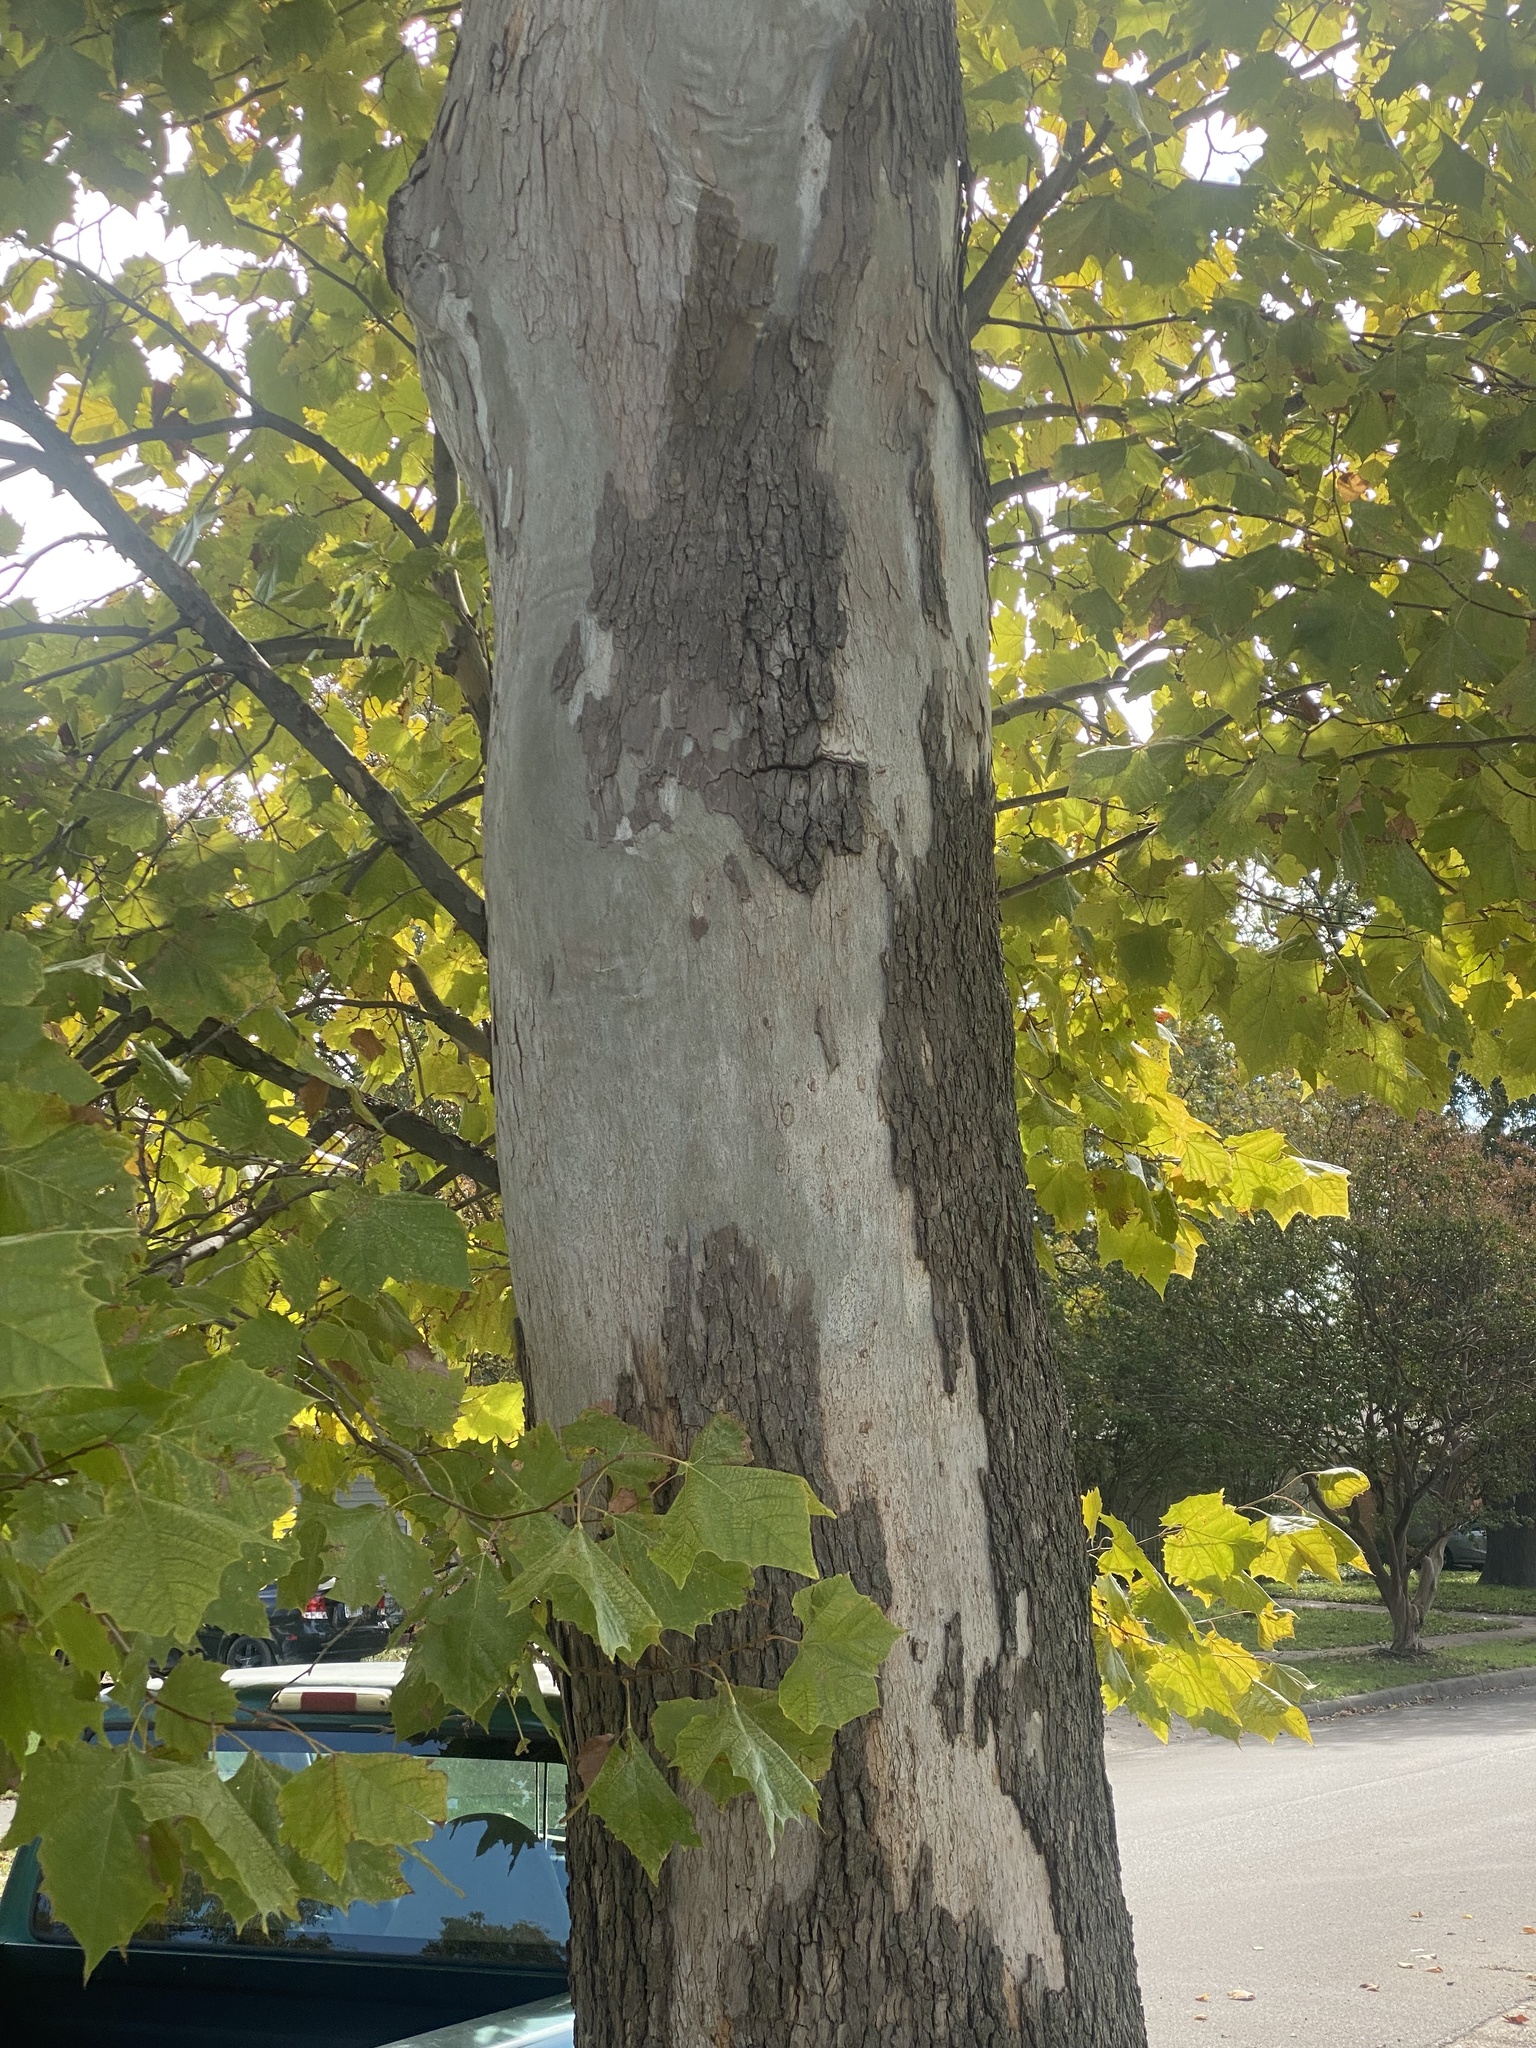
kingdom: Plantae
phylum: Tracheophyta
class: Magnoliopsida
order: Proteales
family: Platanaceae
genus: Platanus
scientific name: Platanus occidentalis
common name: American sycamore
